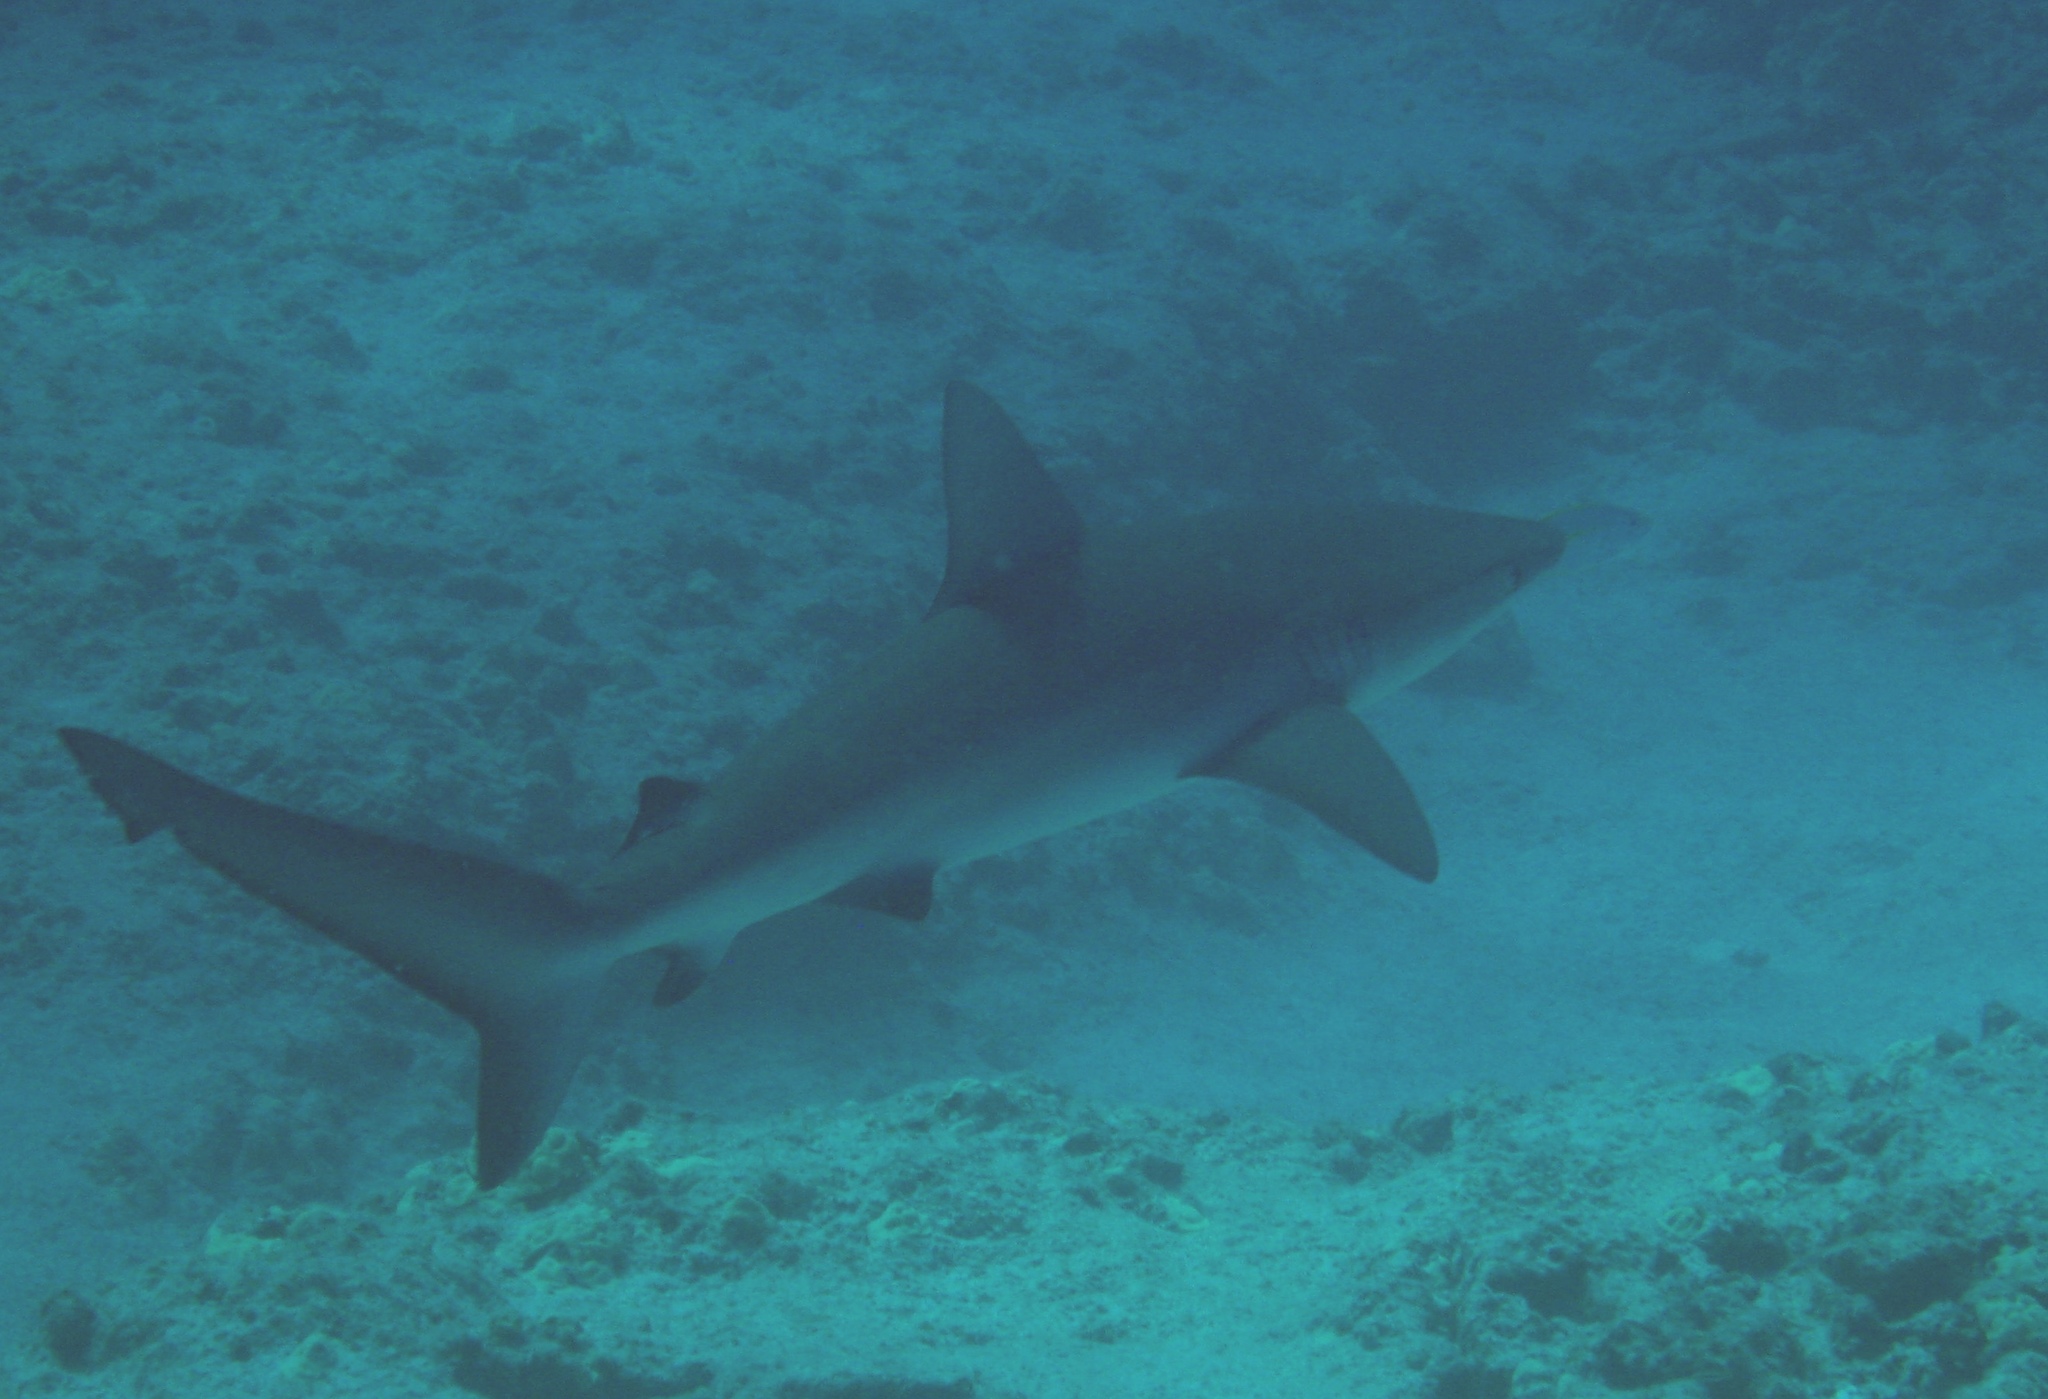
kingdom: Animalia
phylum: Chordata
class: Elasmobranchii
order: Carcharhiniformes
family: Carcharhinidae
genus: Carcharhinus
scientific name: Carcharhinus galapagensis
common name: Galapagos shark
